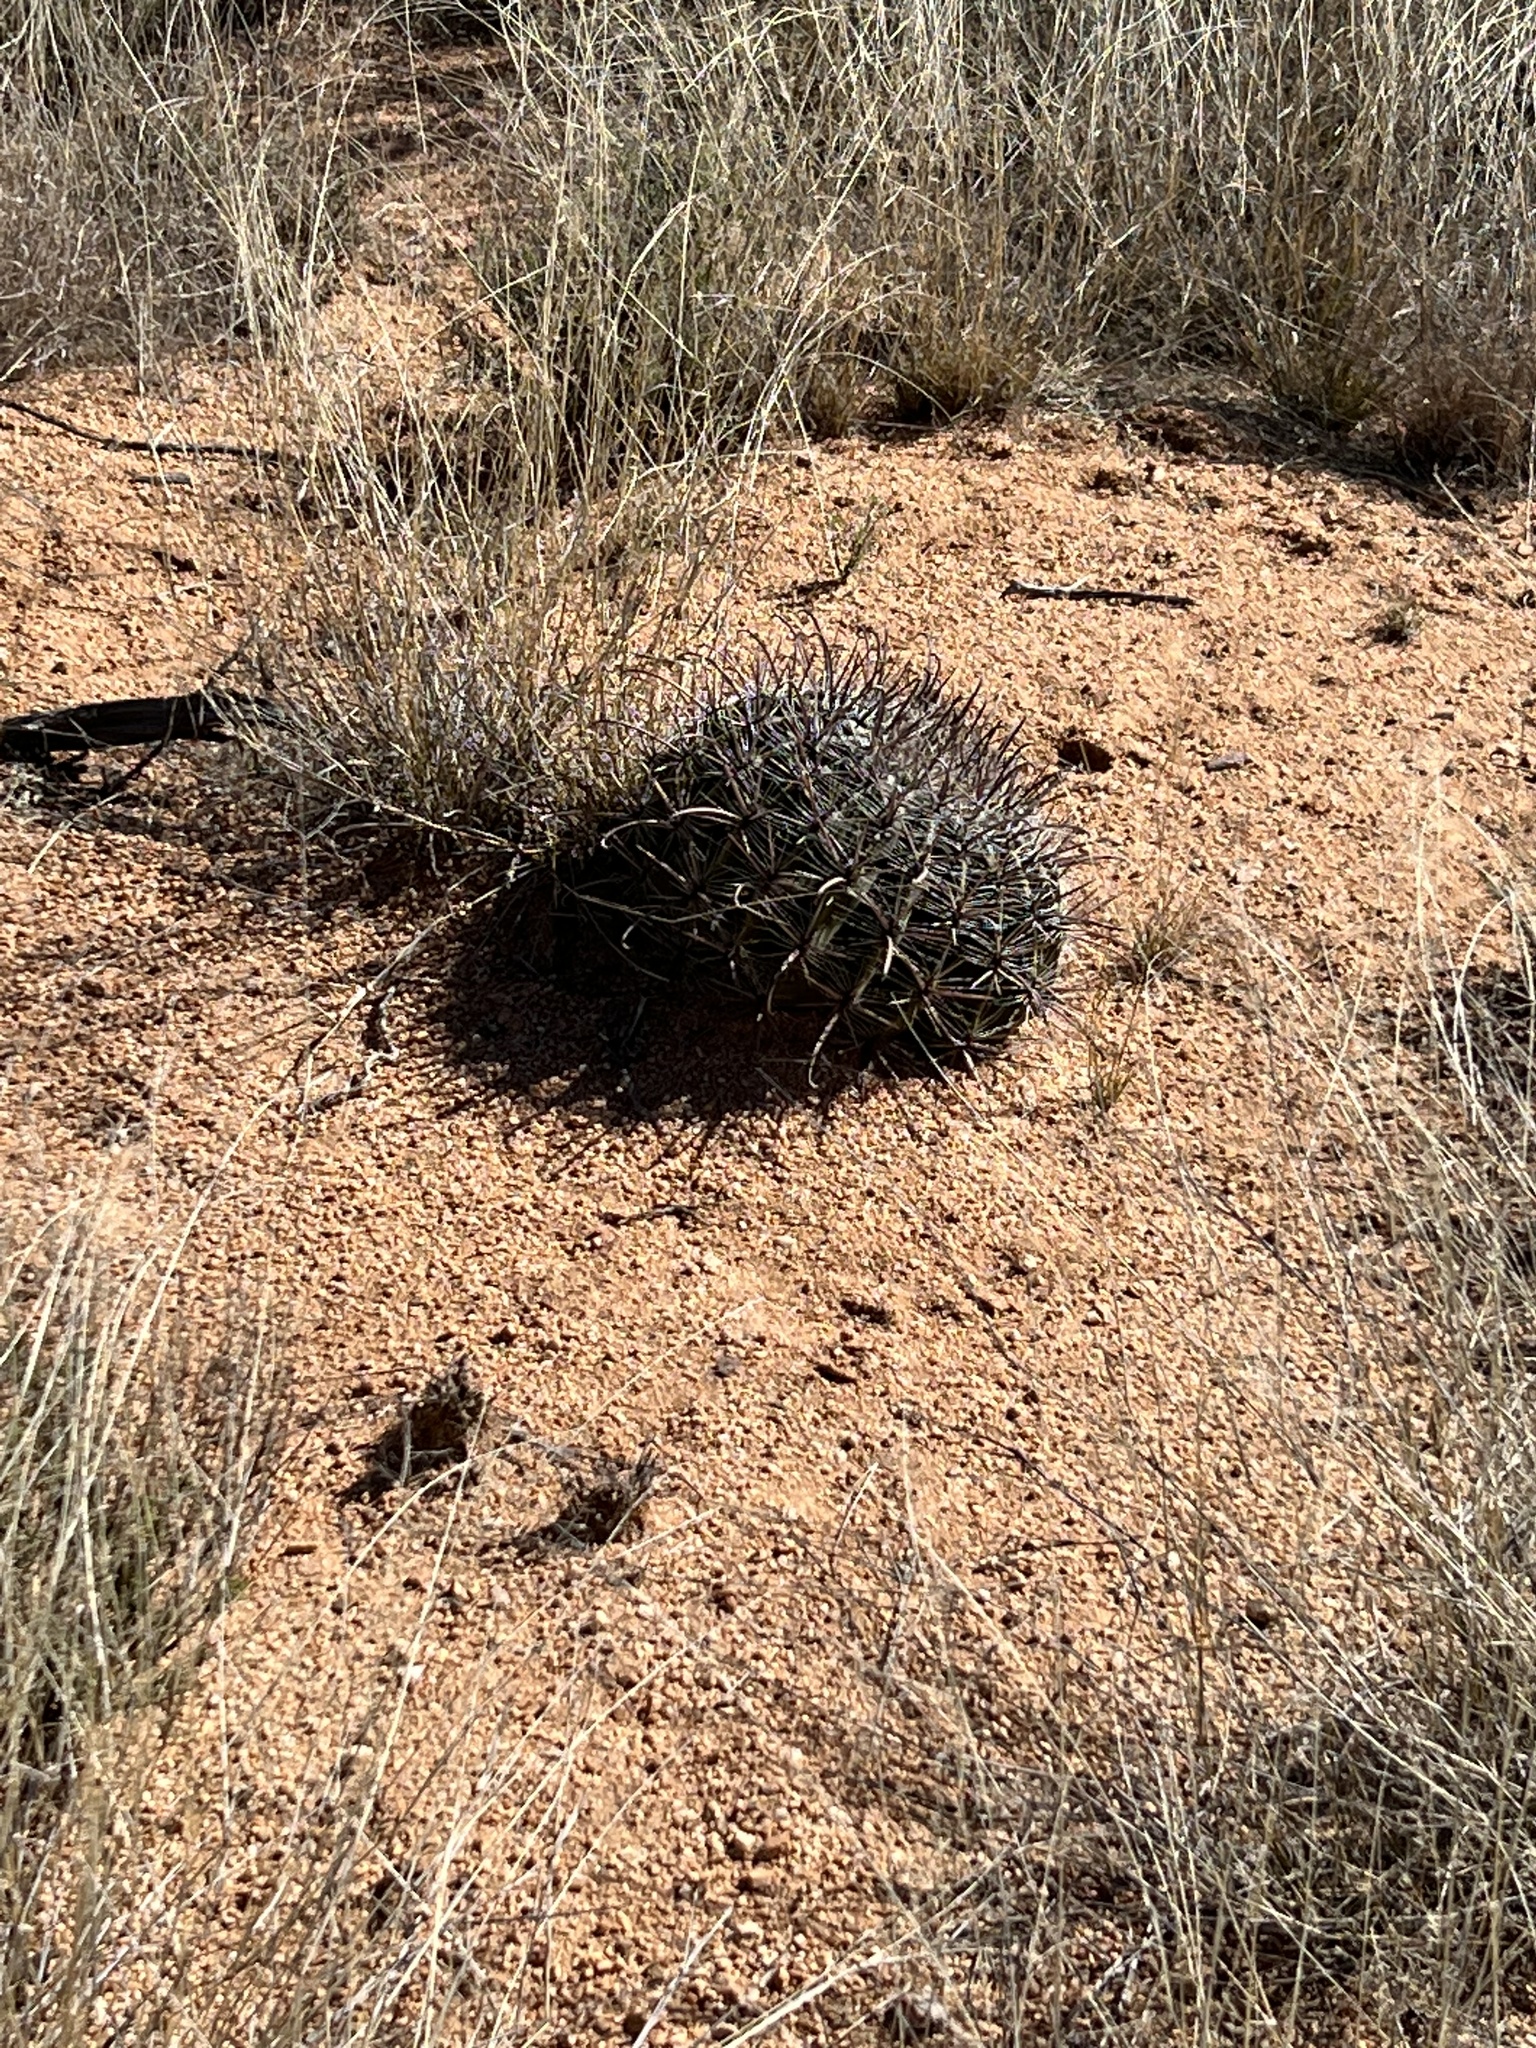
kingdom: Plantae
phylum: Tracheophyta
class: Magnoliopsida
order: Caryophyllales
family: Cactaceae
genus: Ferocactus
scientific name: Ferocactus wislizeni
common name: Candy barrel cactus
